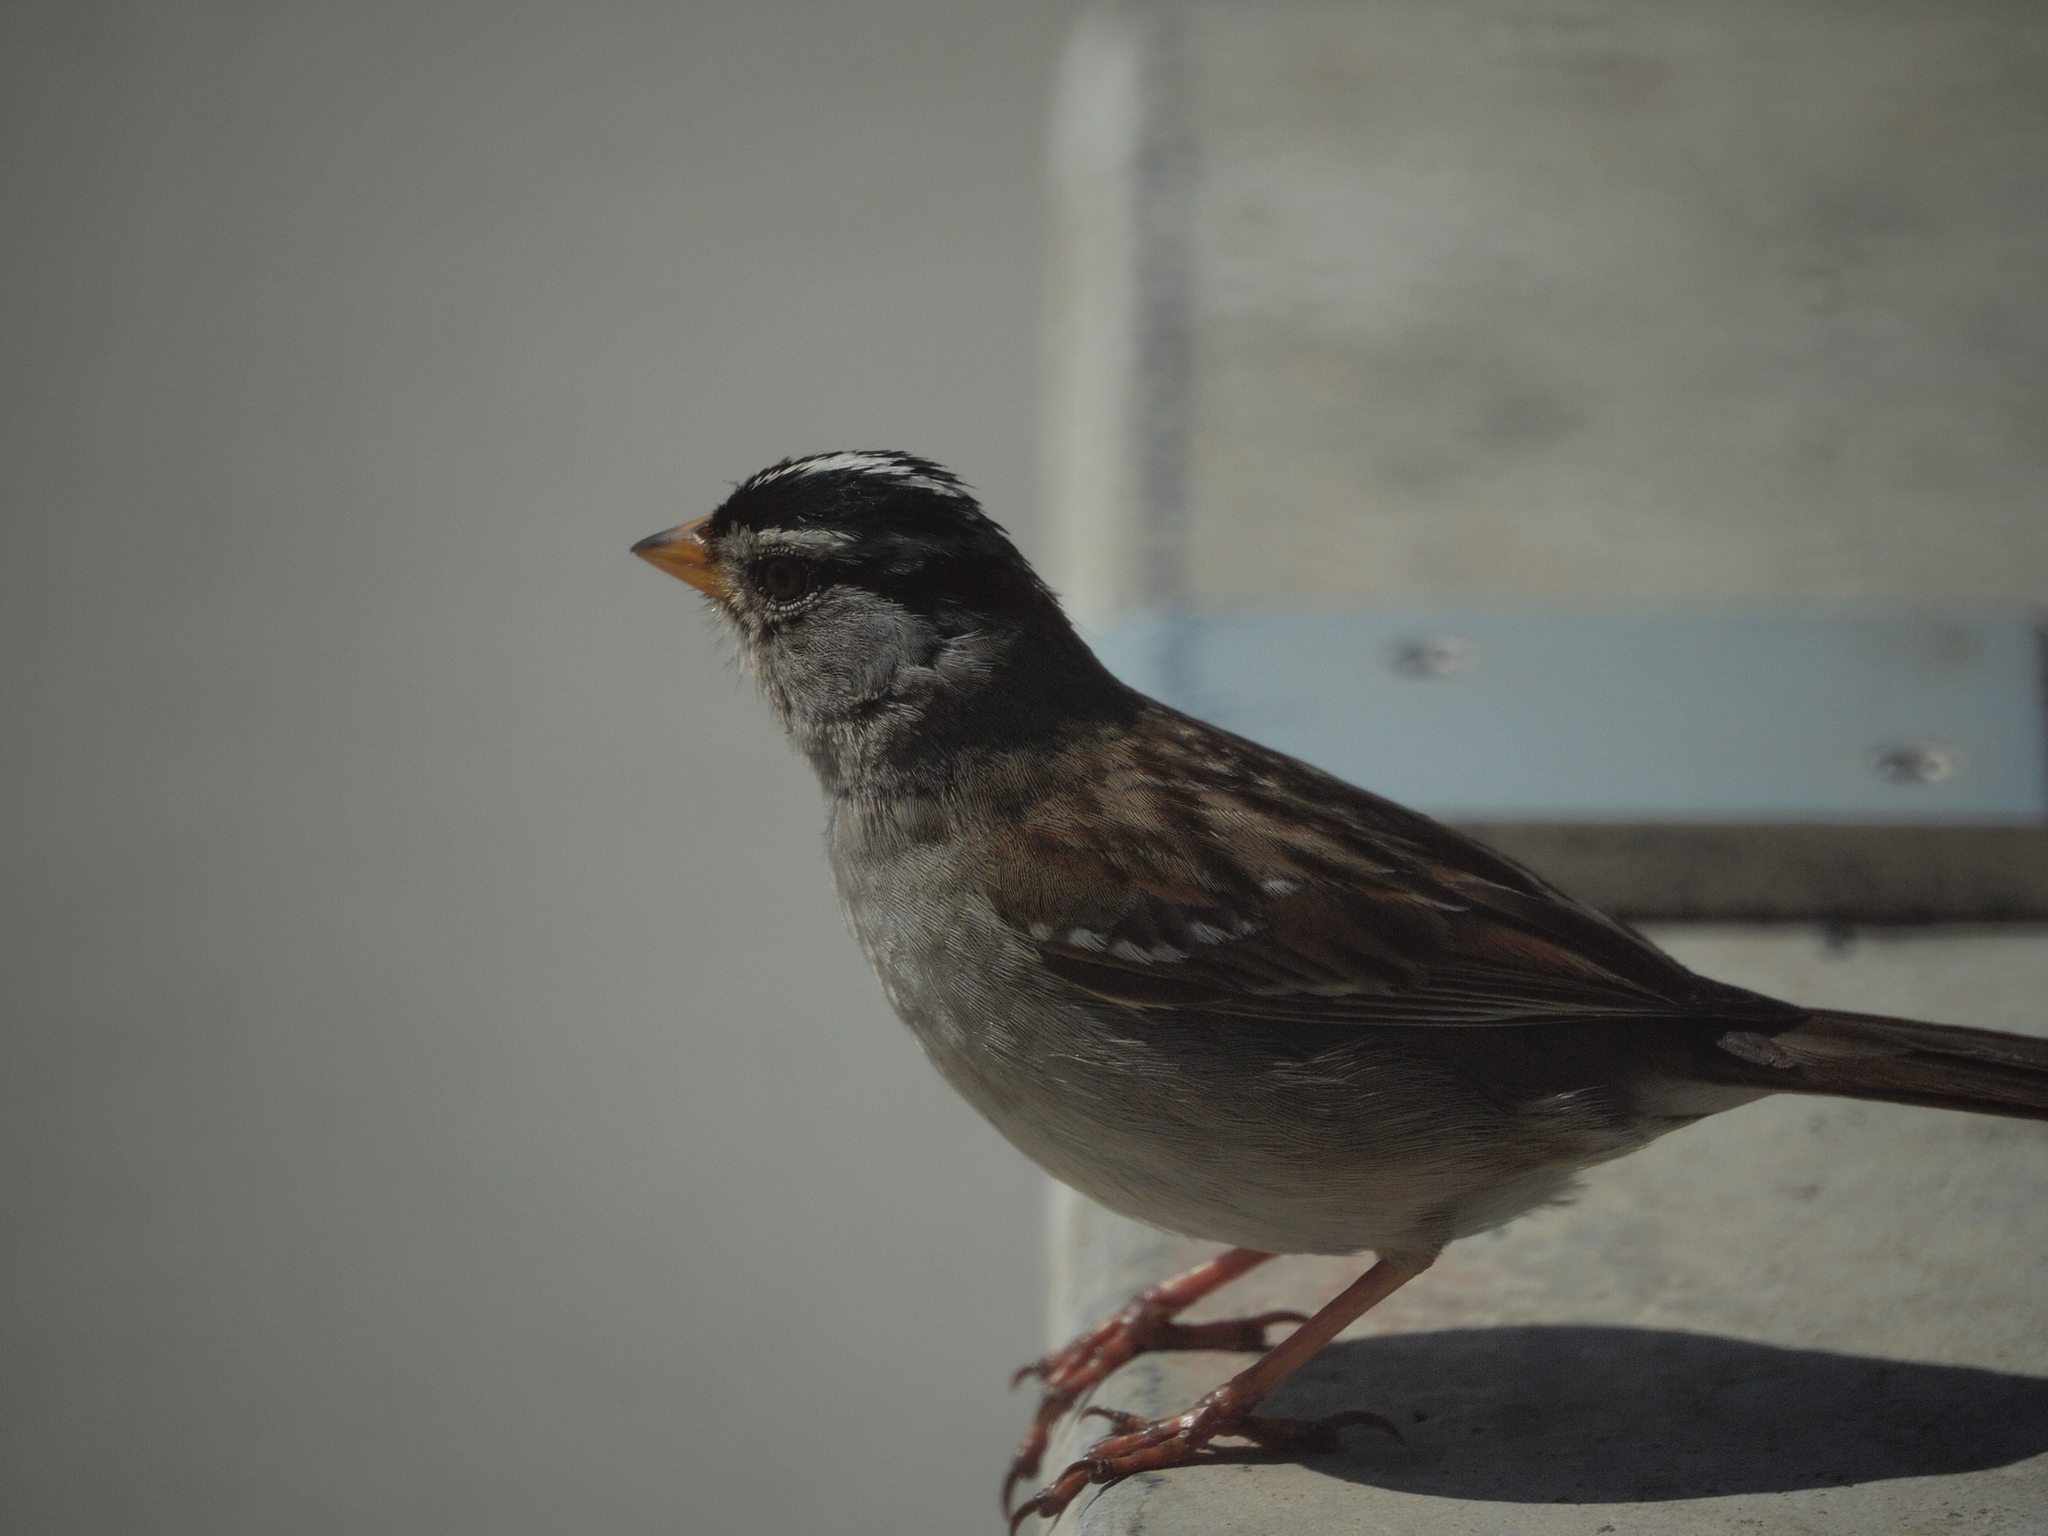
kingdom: Animalia
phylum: Chordata
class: Aves
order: Passeriformes
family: Passerellidae
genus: Zonotrichia
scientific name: Zonotrichia leucophrys
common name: White-crowned sparrow
